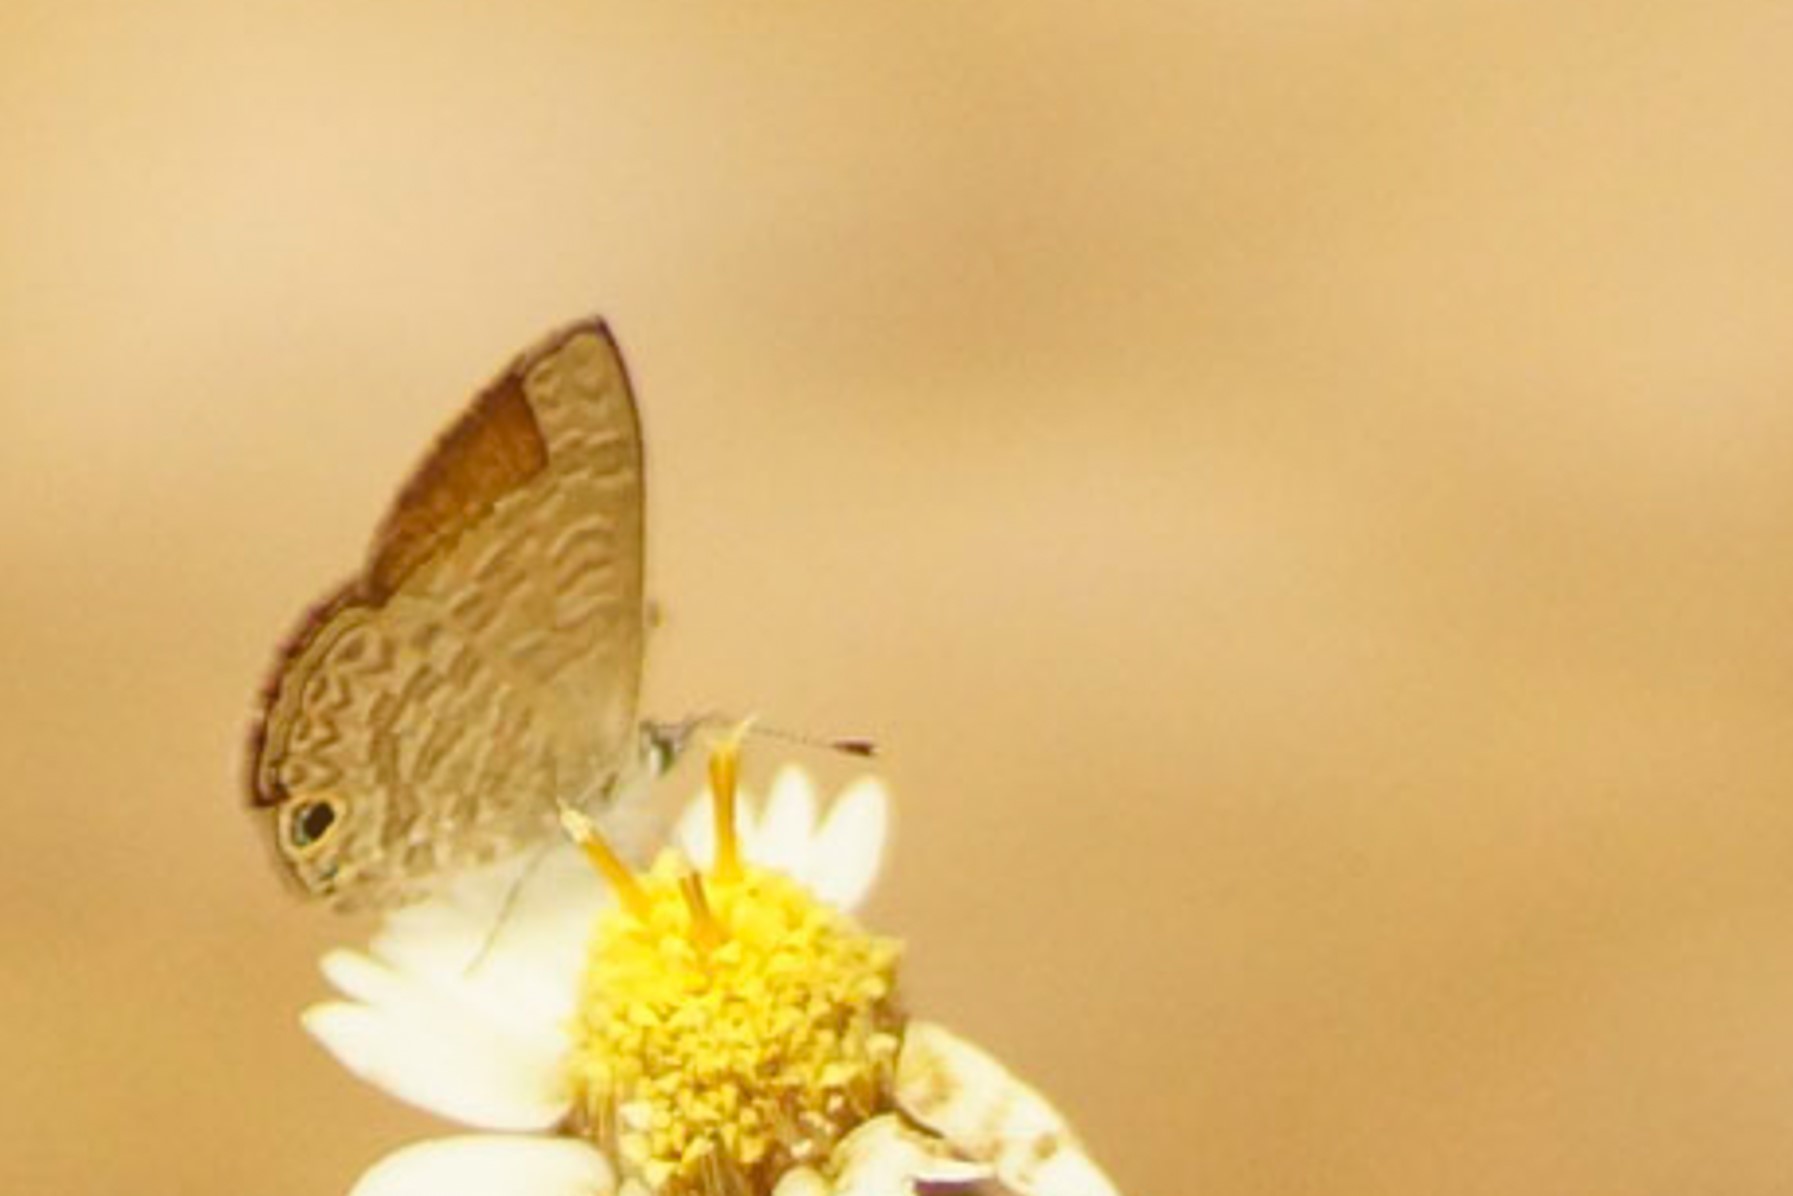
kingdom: Animalia
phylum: Arthropoda
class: Insecta
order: Lepidoptera
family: Lycaenidae
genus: Prosotas
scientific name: Prosotas dubiosa
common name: Tailless lineblue
